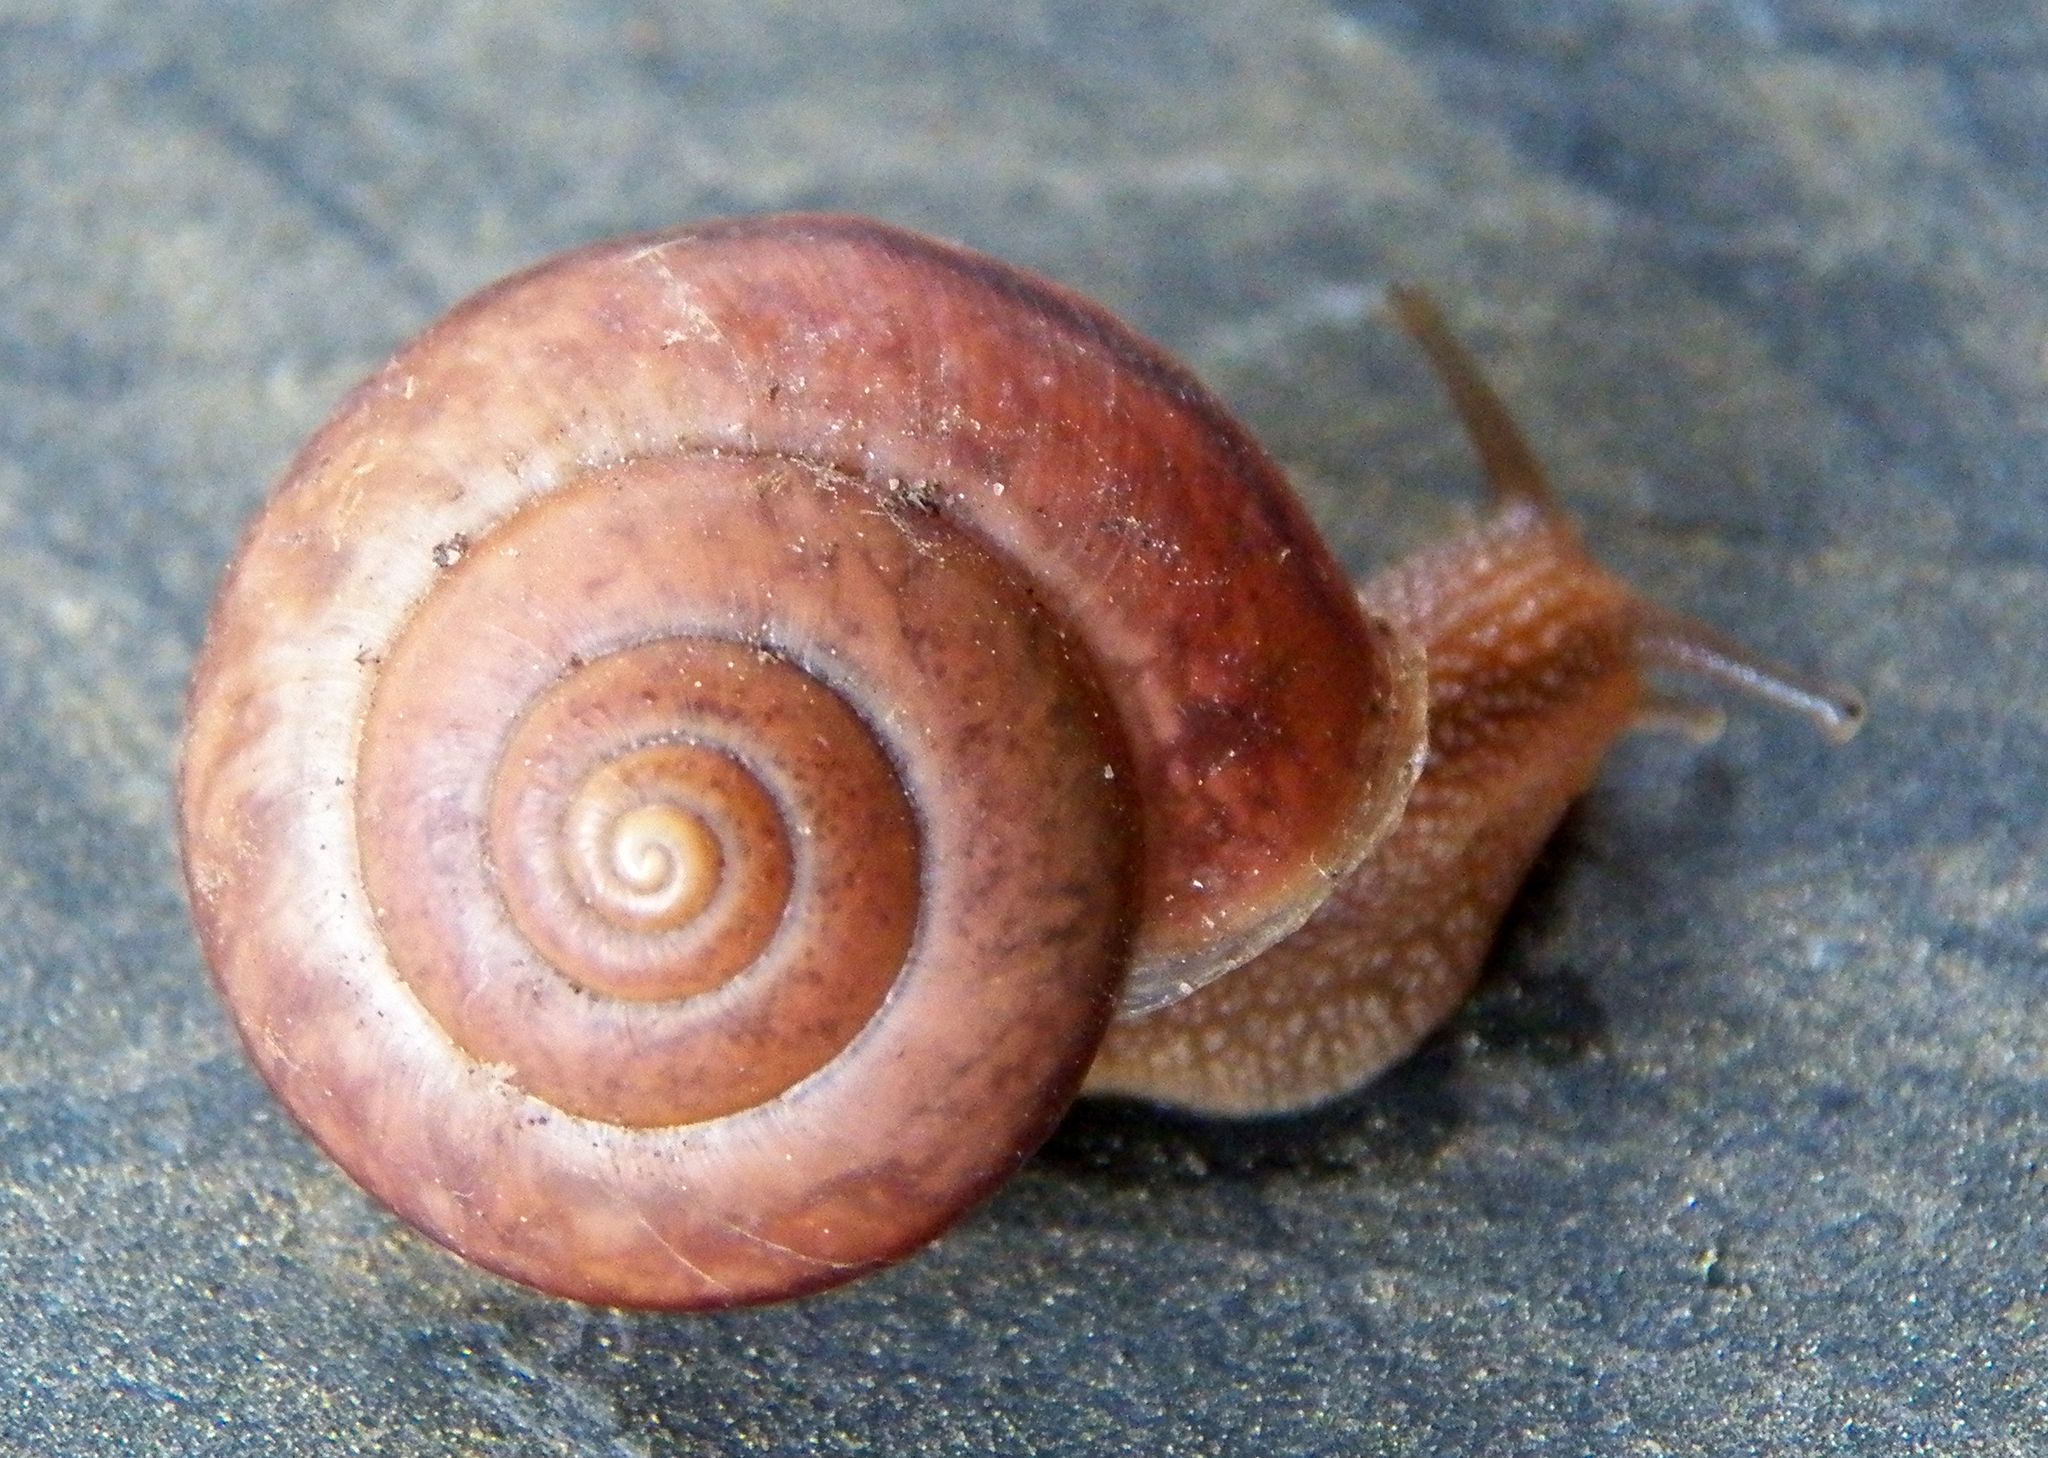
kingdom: Animalia
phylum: Mollusca
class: Gastropoda
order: Stylommatophora
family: Camaenidae
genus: Bradybaena
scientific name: Bradybaena similaris
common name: Asian trampsnail
